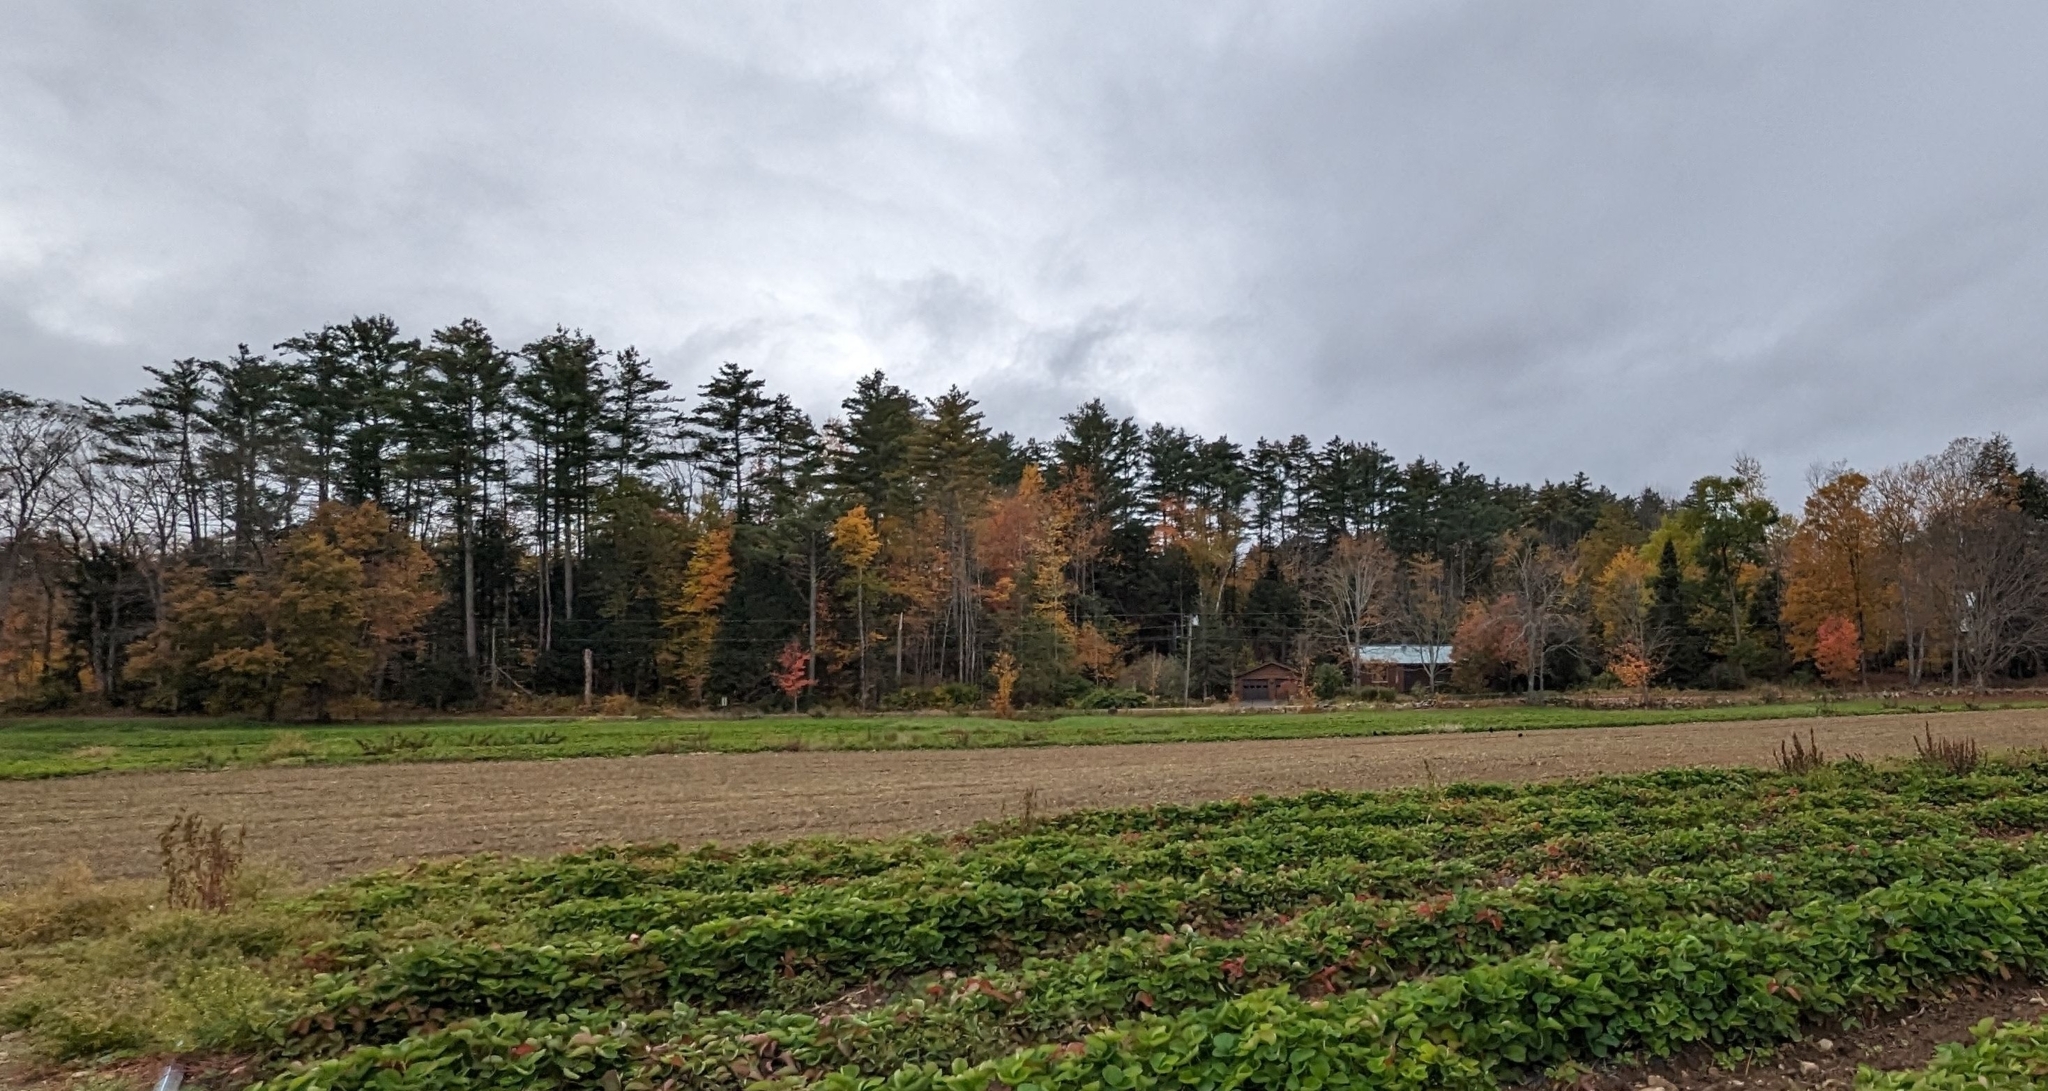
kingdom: Plantae
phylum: Tracheophyta
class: Pinopsida
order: Pinales
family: Pinaceae
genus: Pinus
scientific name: Pinus strobus
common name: Weymouth pine
